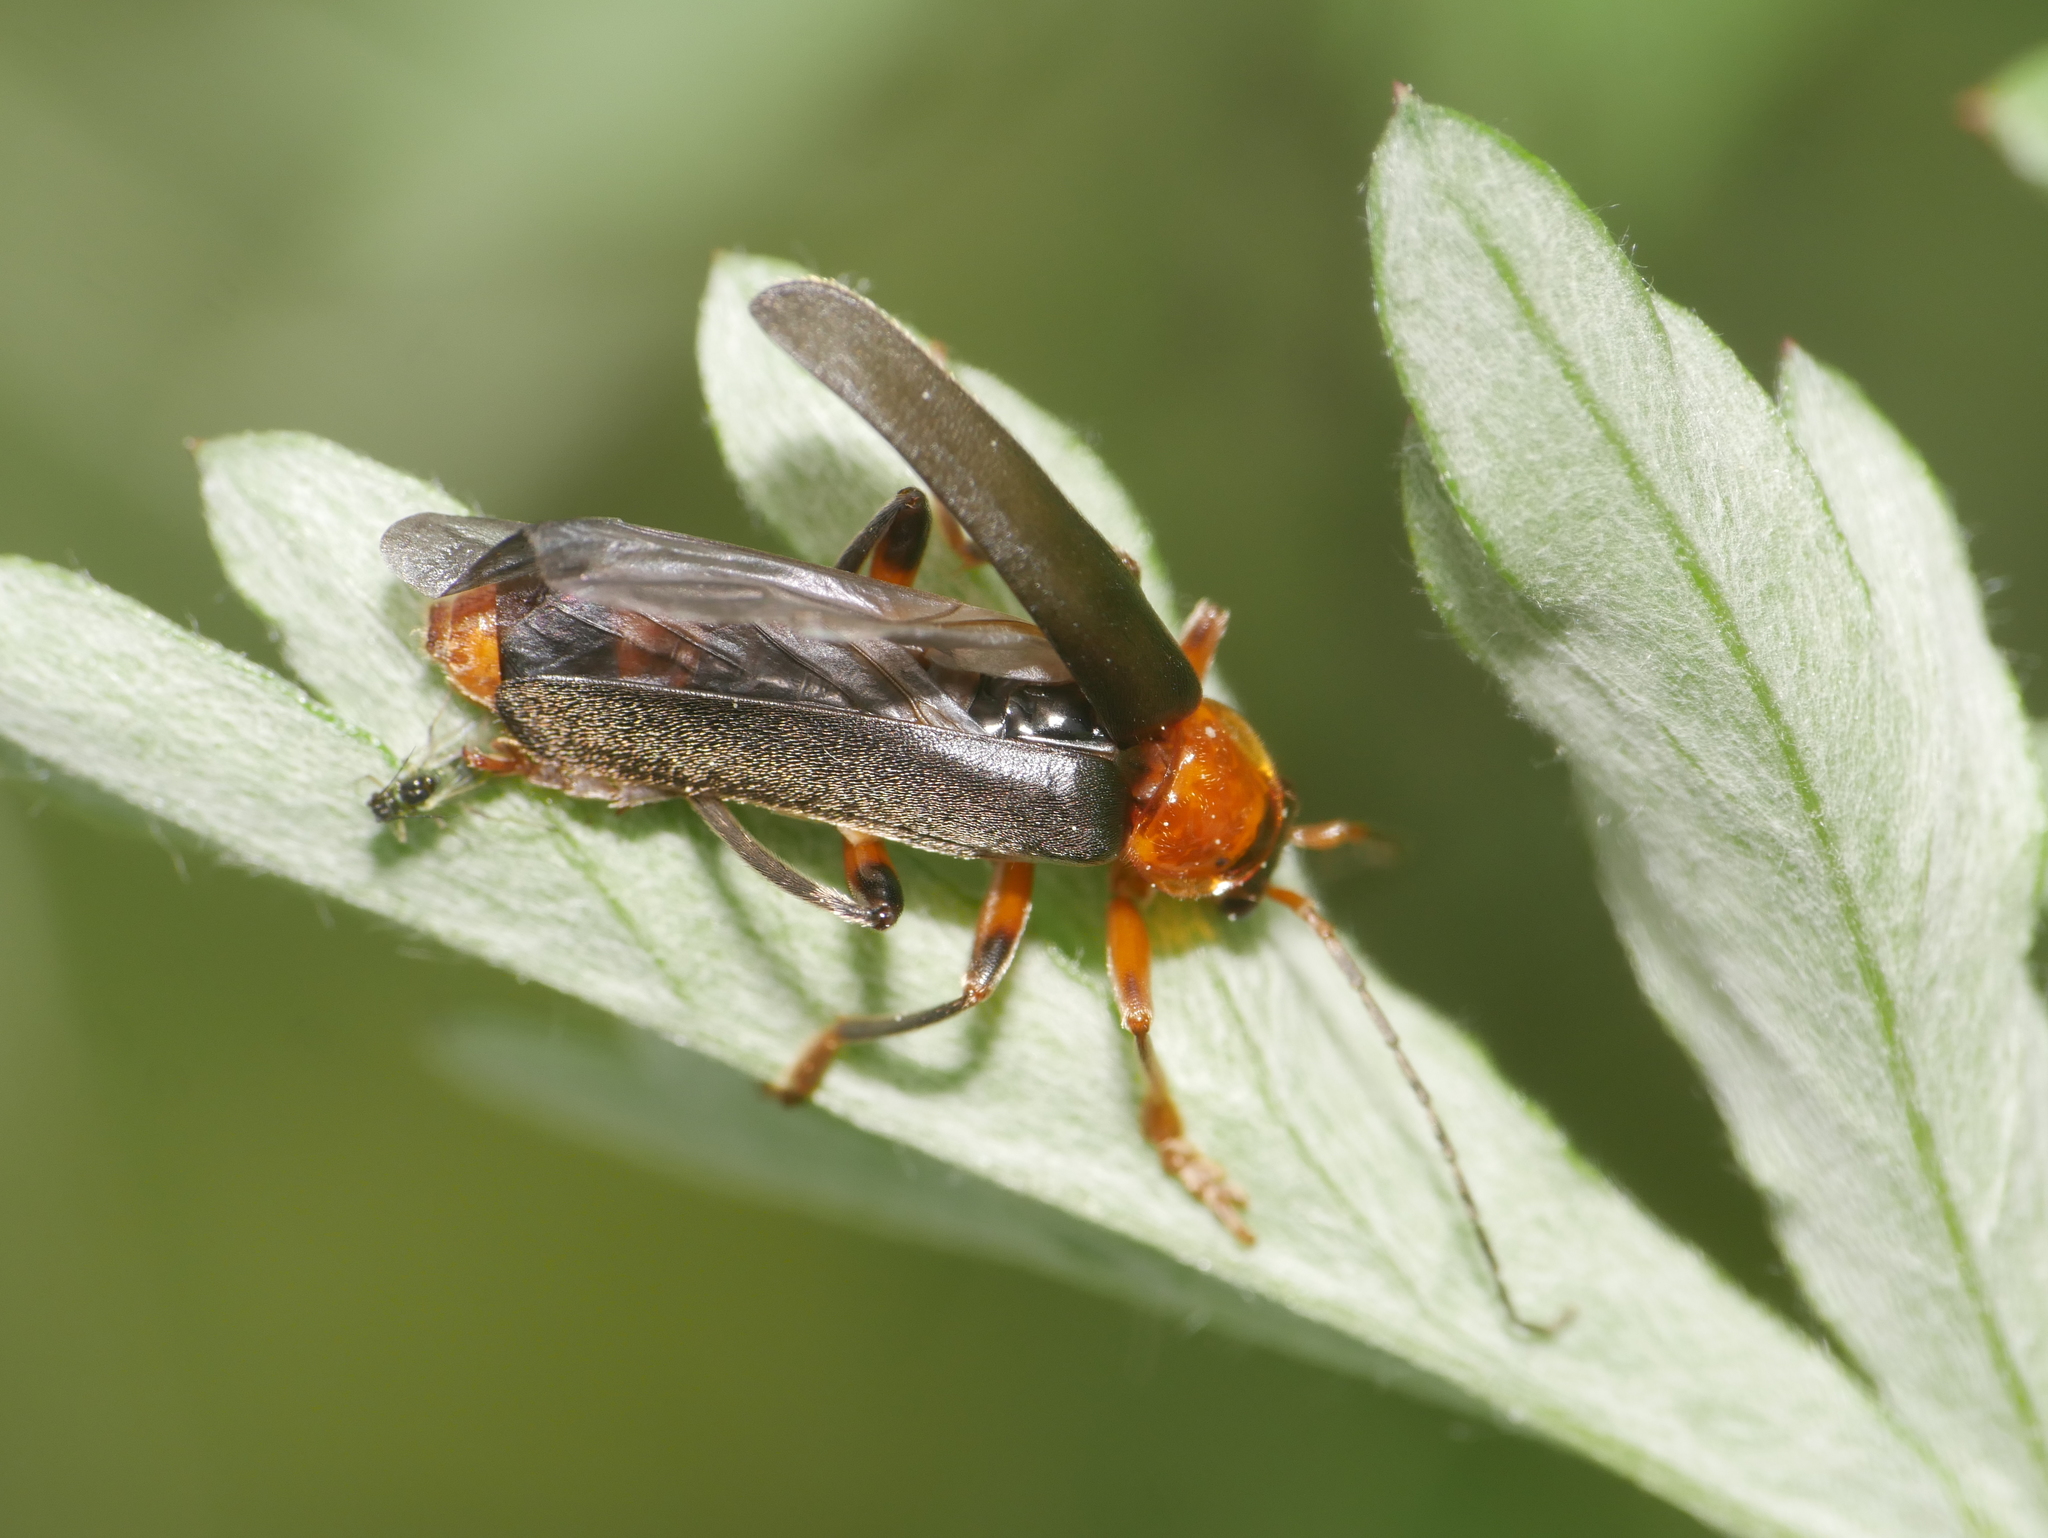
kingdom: Animalia
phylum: Arthropoda
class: Insecta
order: Coleoptera
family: Cantharidae
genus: Cantharis
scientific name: Cantharis livida
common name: Livid soldier beetle
